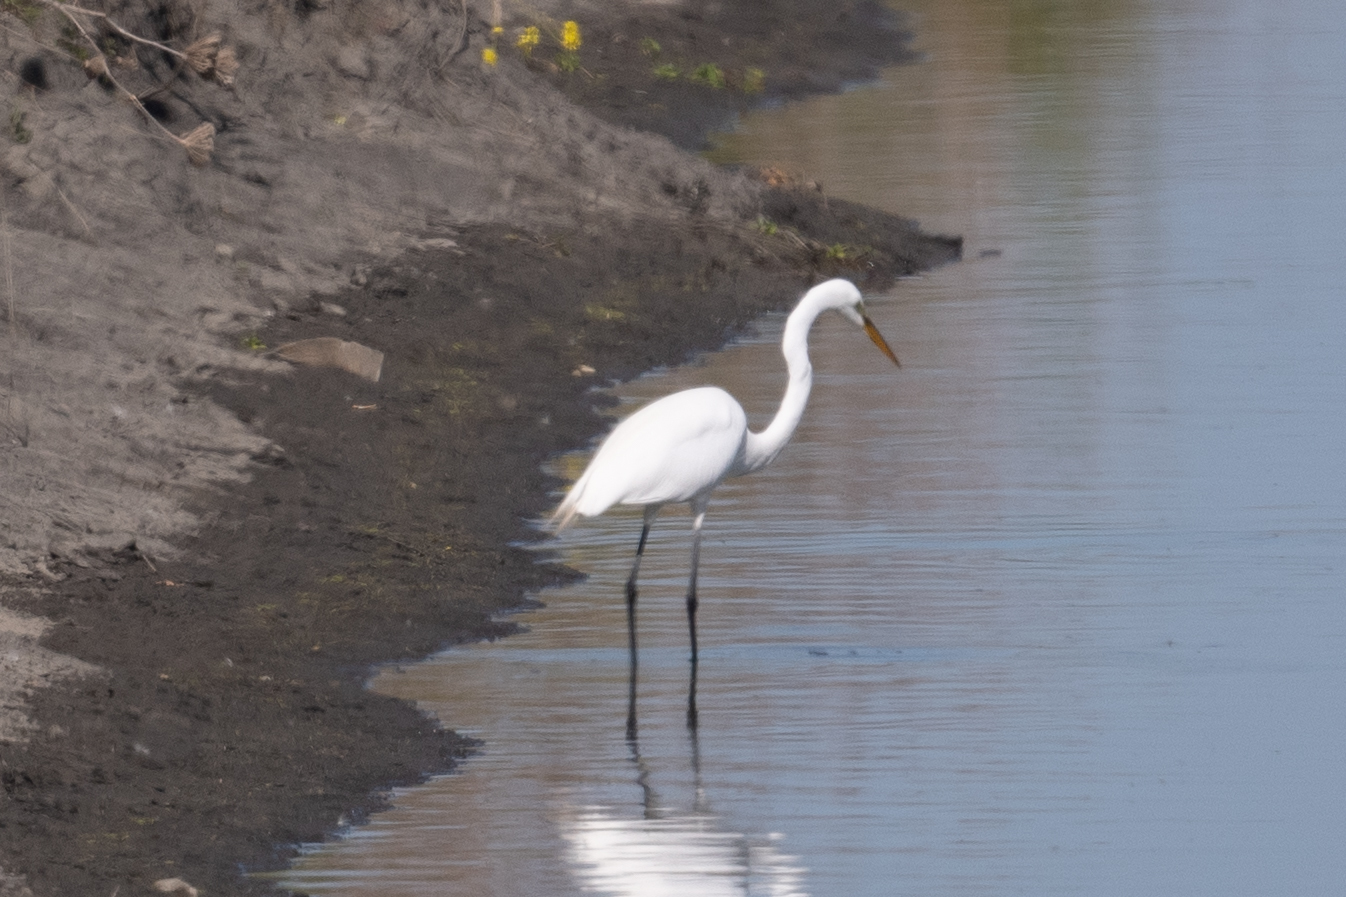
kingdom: Animalia
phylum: Chordata
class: Aves
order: Pelecaniformes
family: Ardeidae
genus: Ardea
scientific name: Ardea alba
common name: Great egret
